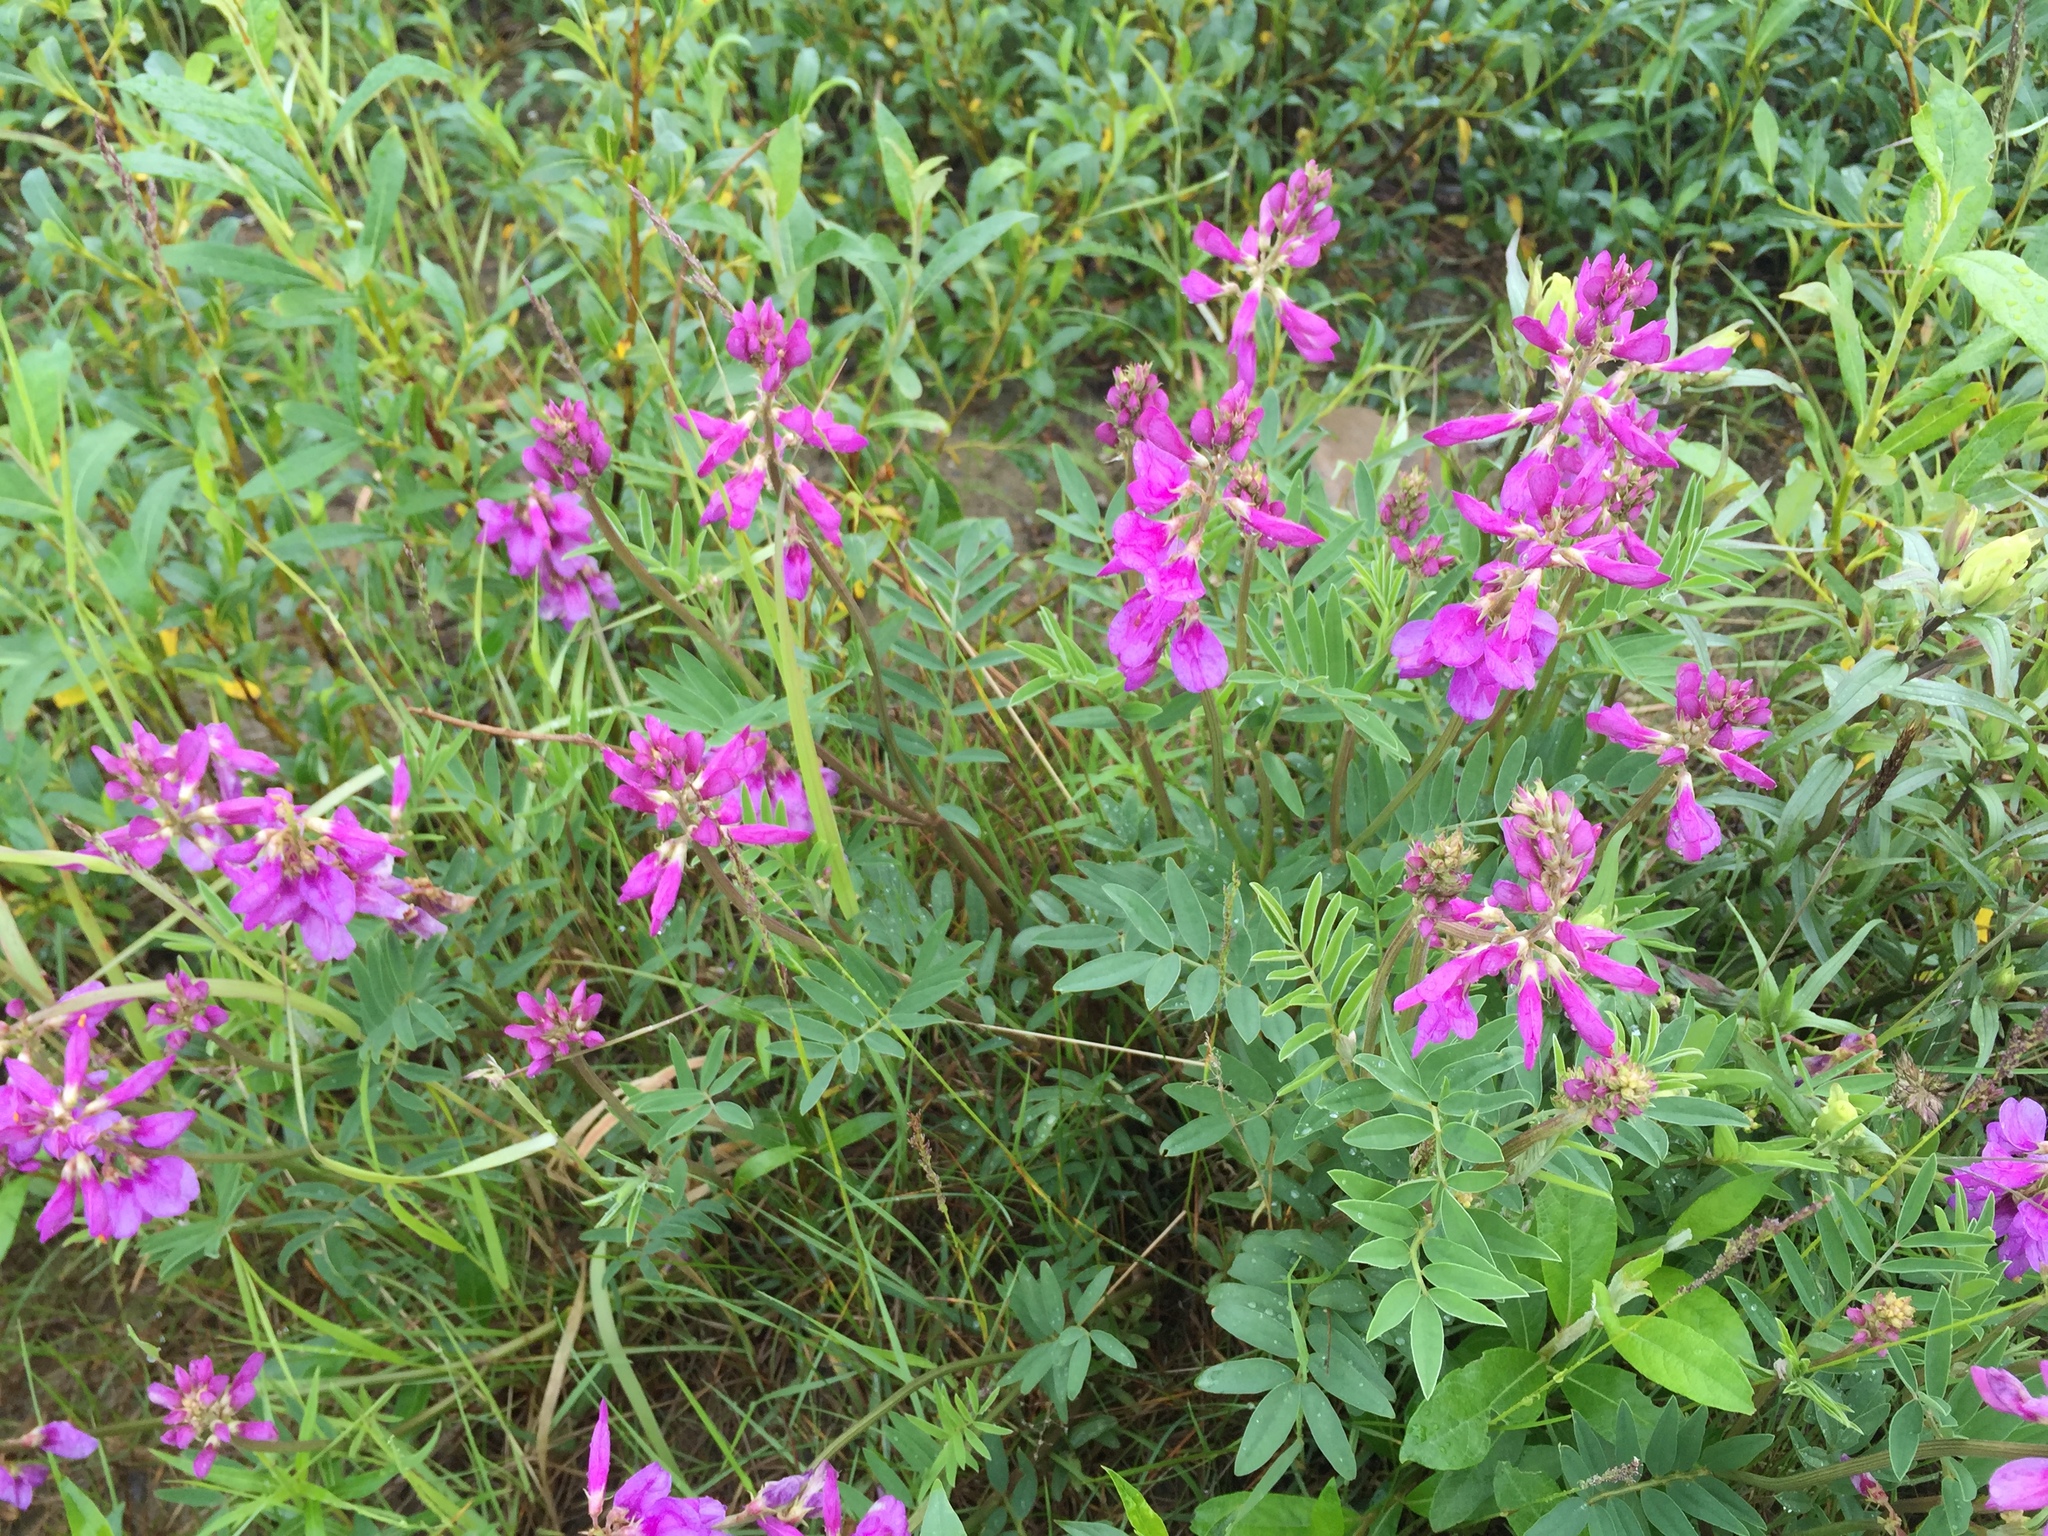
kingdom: Plantae
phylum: Tracheophyta
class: Magnoliopsida
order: Fabales
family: Fabaceae
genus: Hedysarum
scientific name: Hedysarum boreale
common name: Northern sweet-vetch
